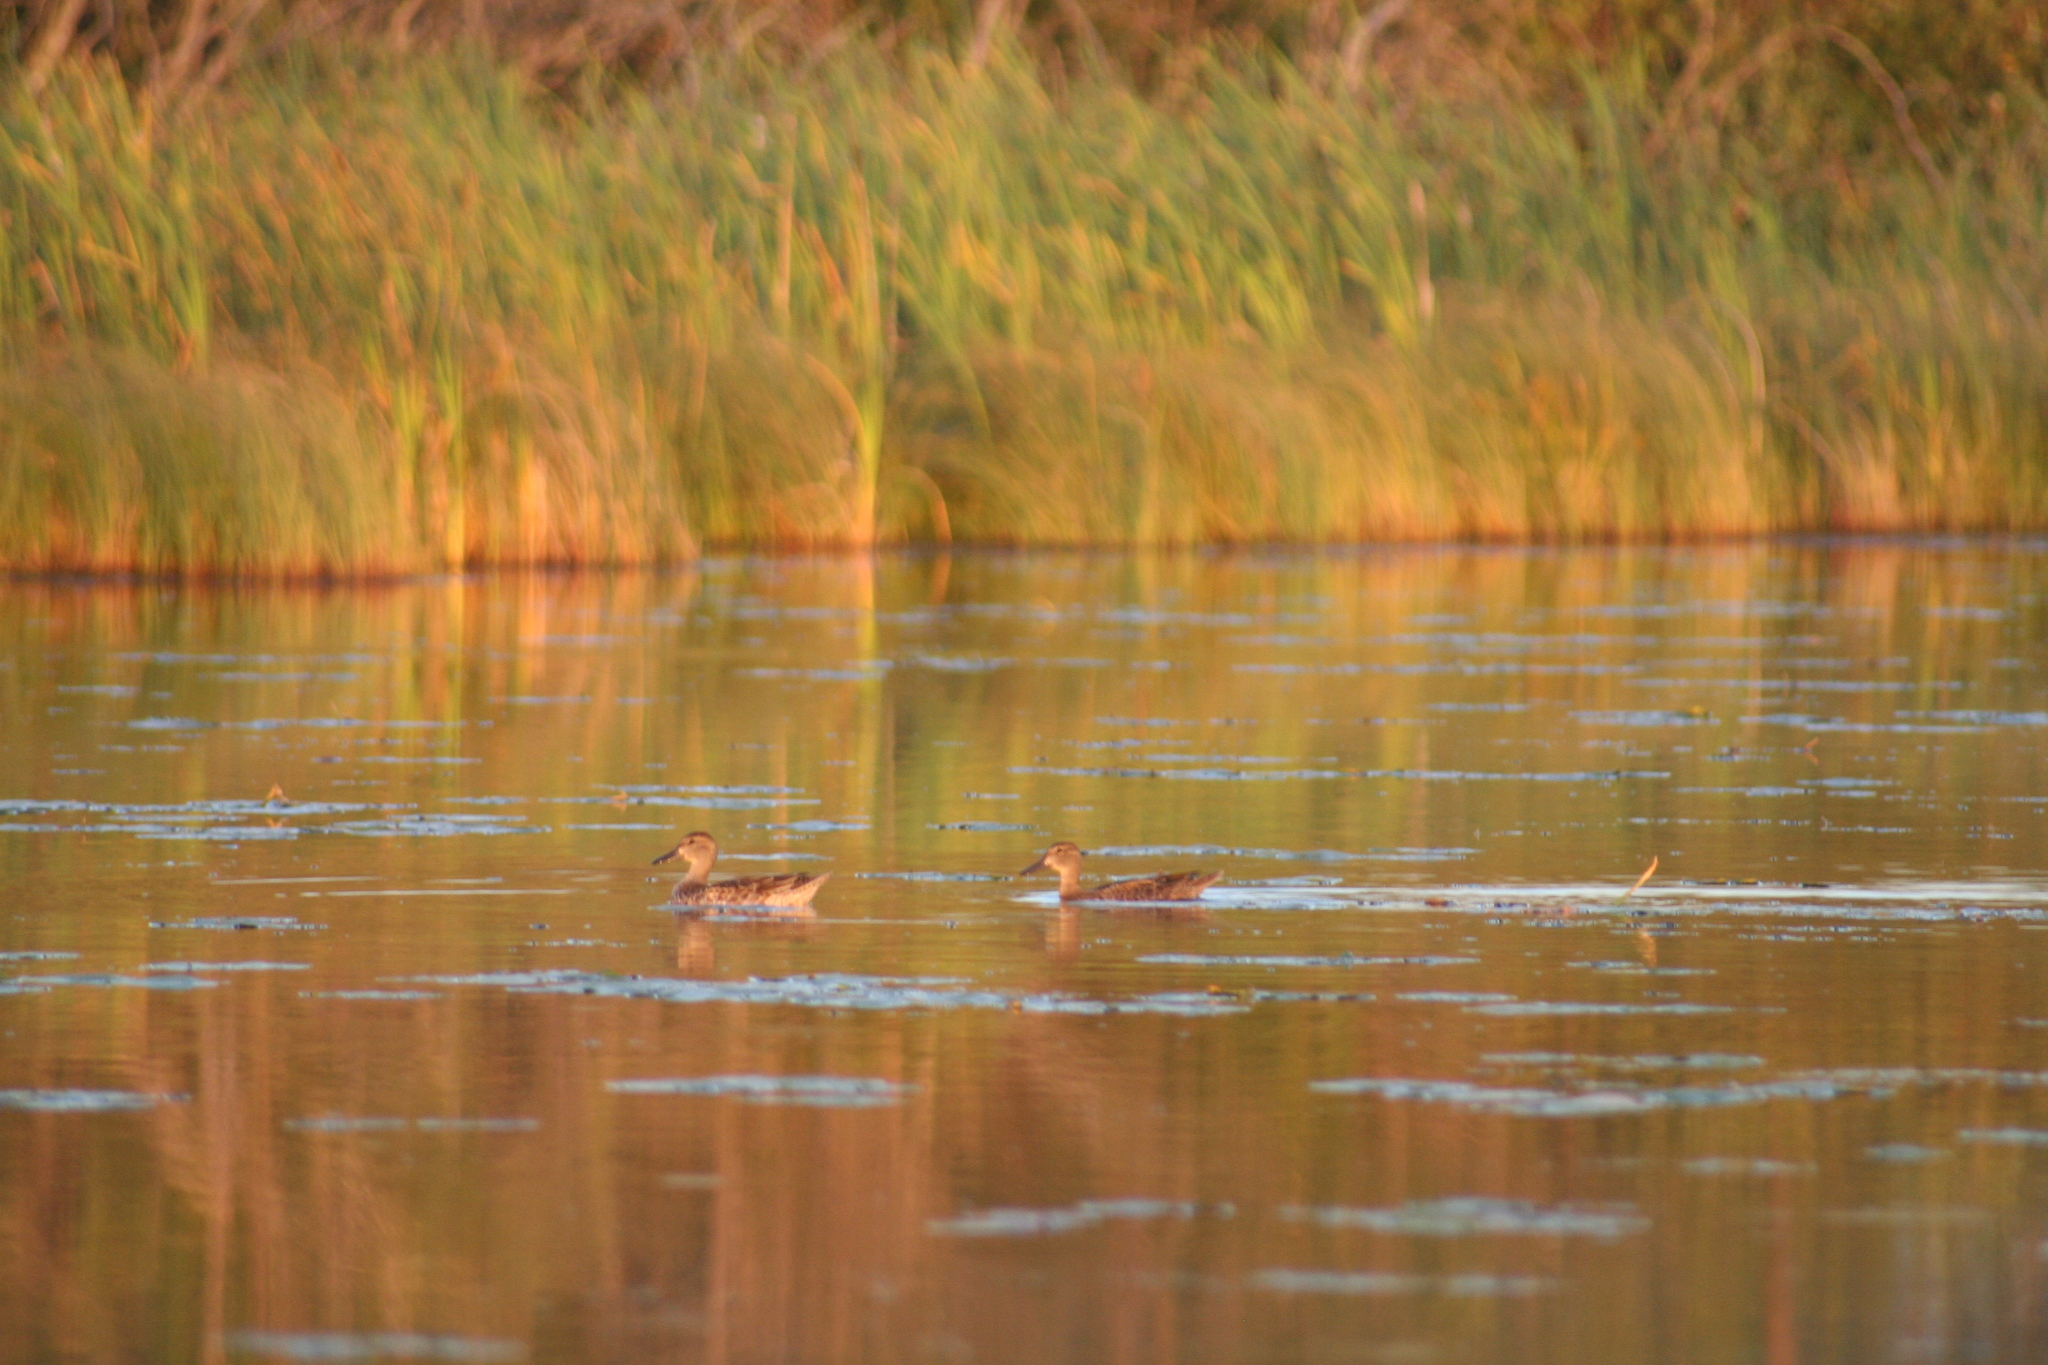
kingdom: Animalia
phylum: Chordata
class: Aves
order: Anseriformes
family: Anatidae
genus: Spatula
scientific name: Spatula discors
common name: Blue-winged teal
